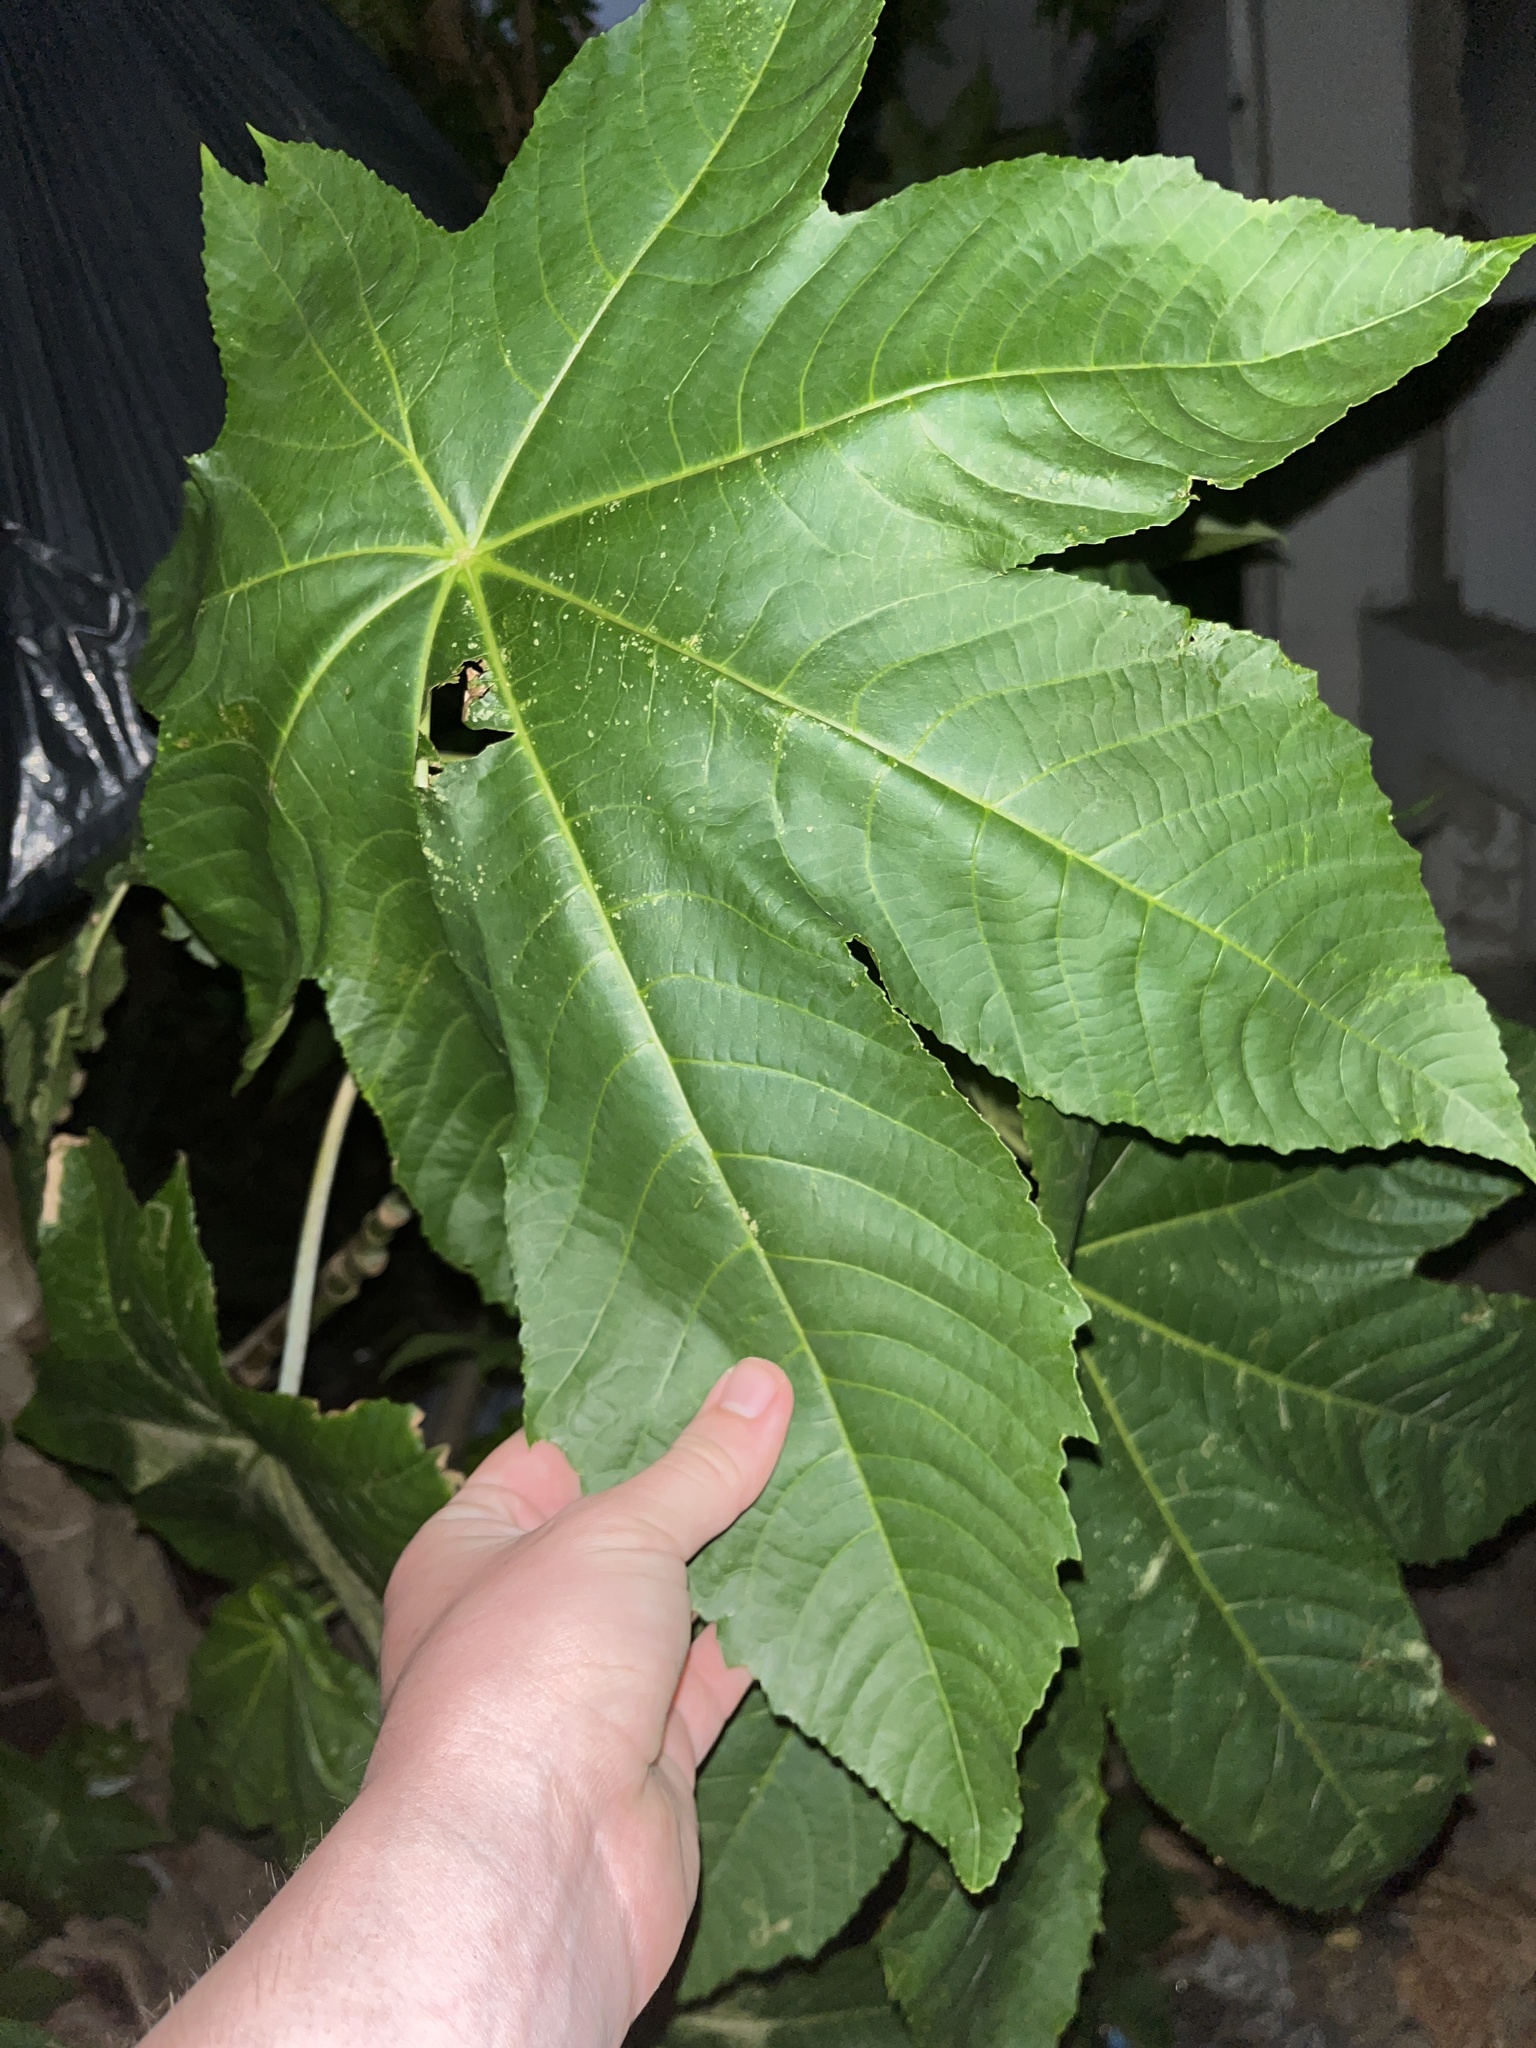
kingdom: Plantae
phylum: Tracheophyta
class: Magnoliopsida
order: Malpighiales
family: Euphorbiaceae
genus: Ricinus
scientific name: Ricinus communis
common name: Castor-oil-plant
